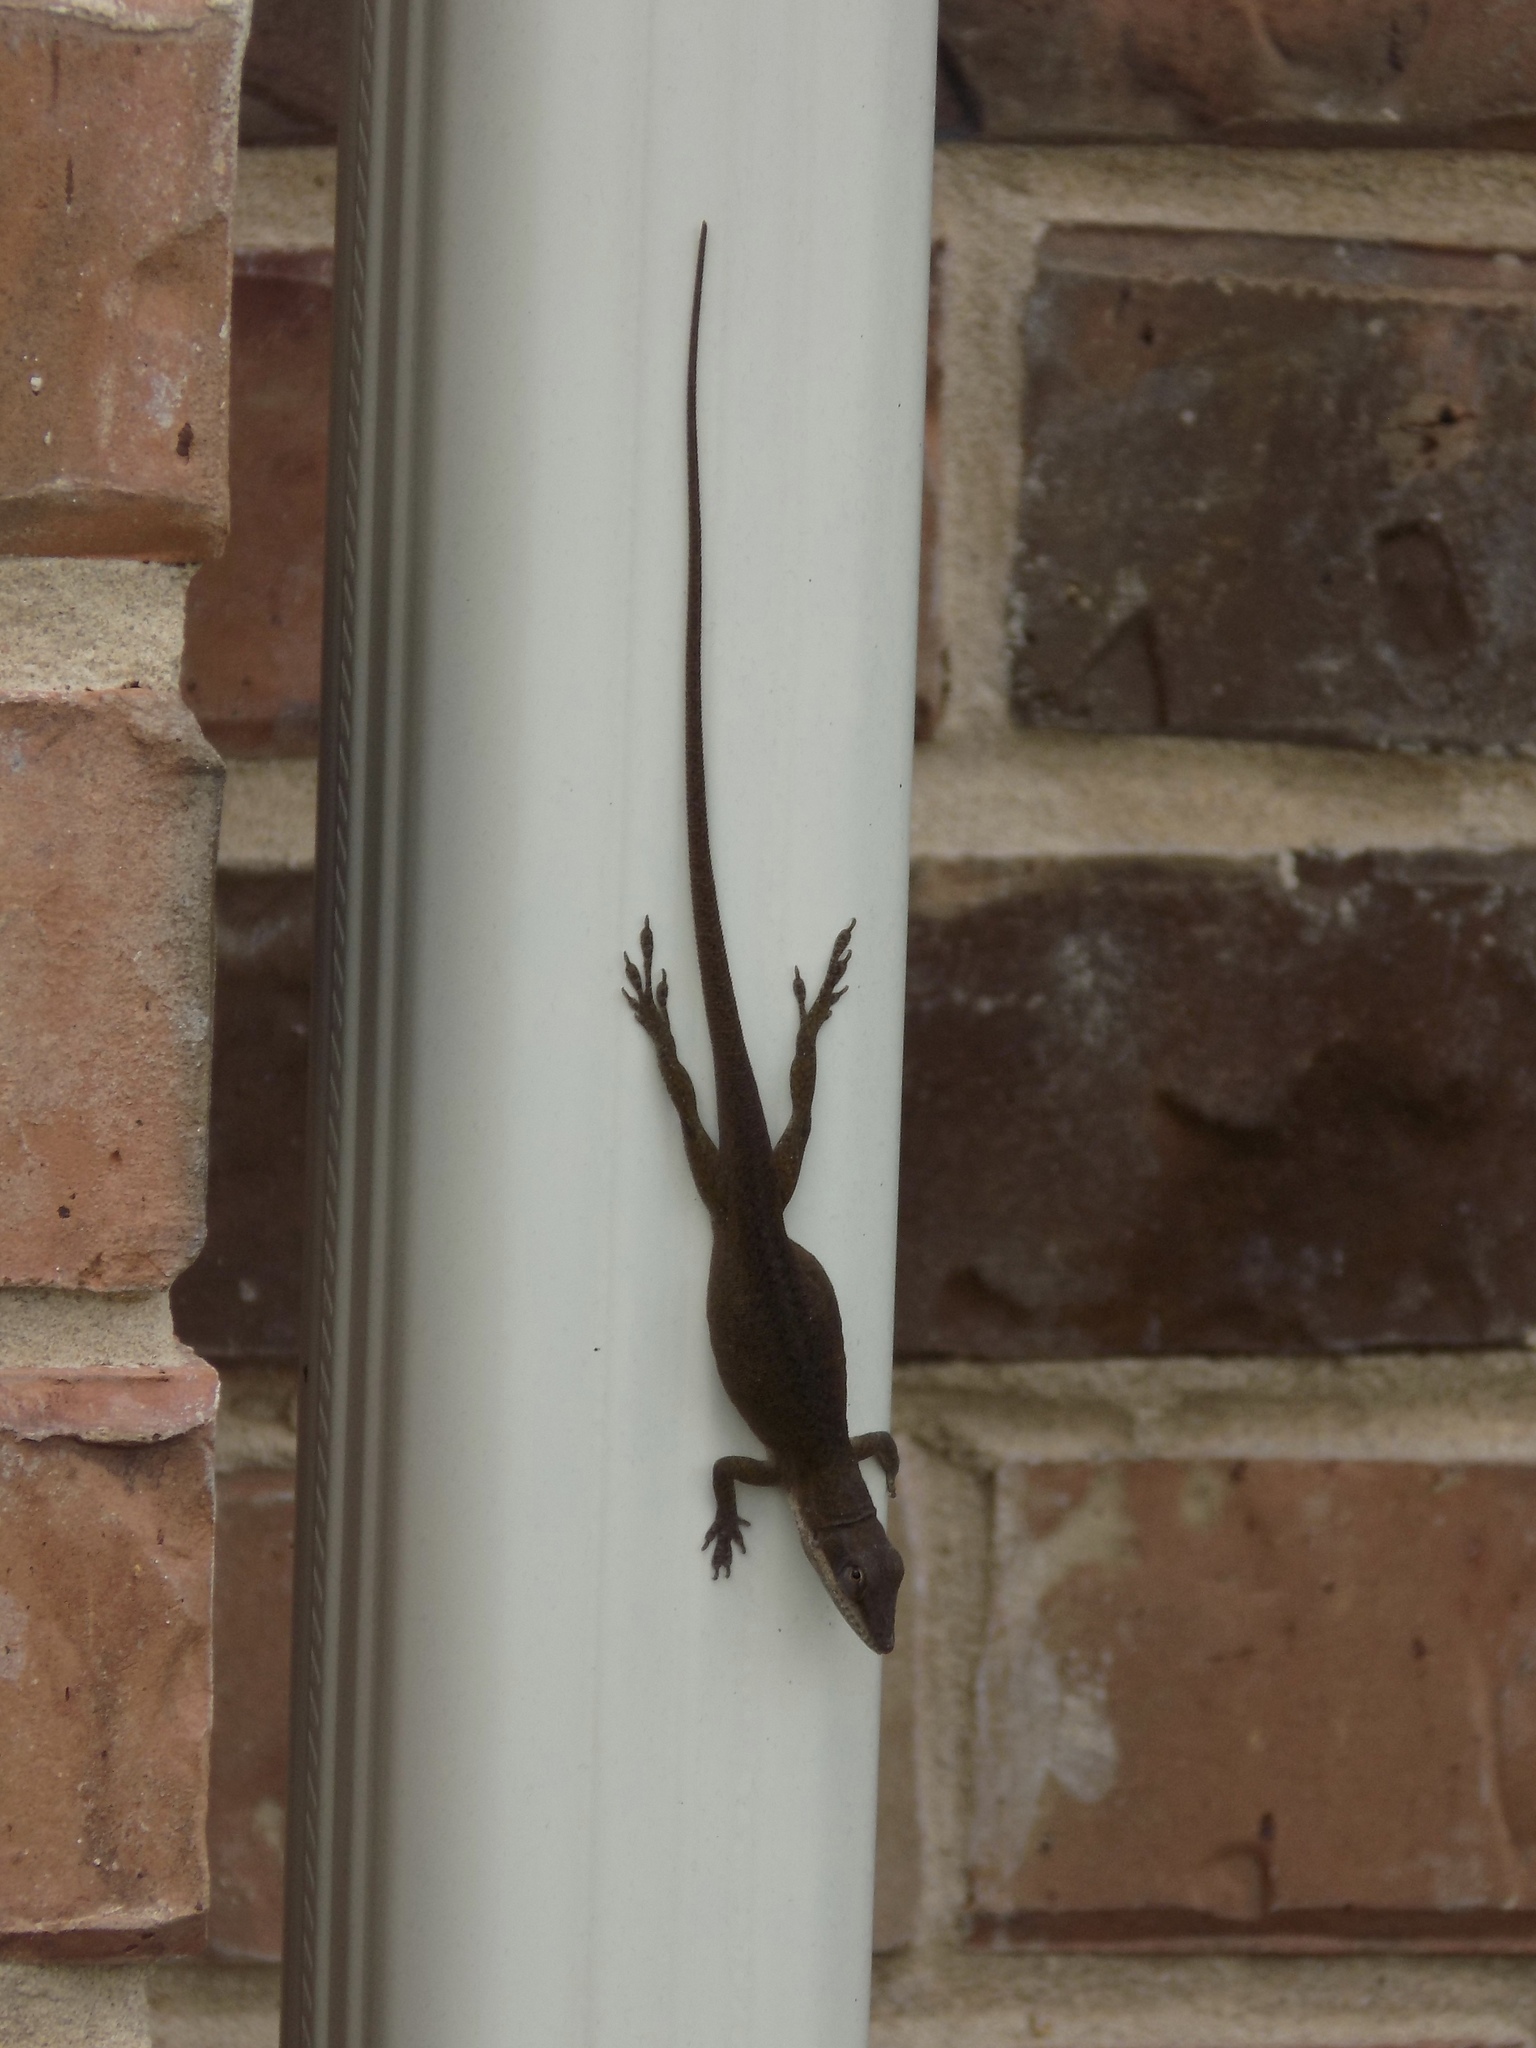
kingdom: Animalia
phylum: Chordata
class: Squamata
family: Dactyloidae
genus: Anolis
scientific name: Anolis carolinensis
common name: Green anole
